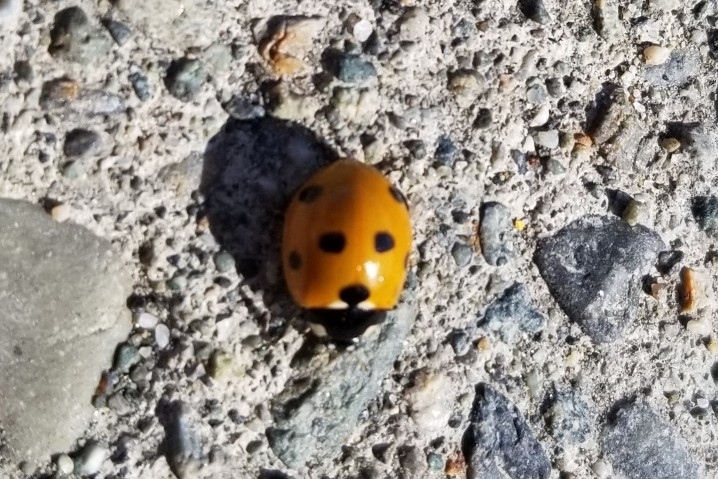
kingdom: Animalia
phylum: Arthropoda
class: Insecta
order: Coleoptera
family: Coccinellidae
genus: Coccinella
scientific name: Coccinella septempunctata
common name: Sevenspotted lady beetle
